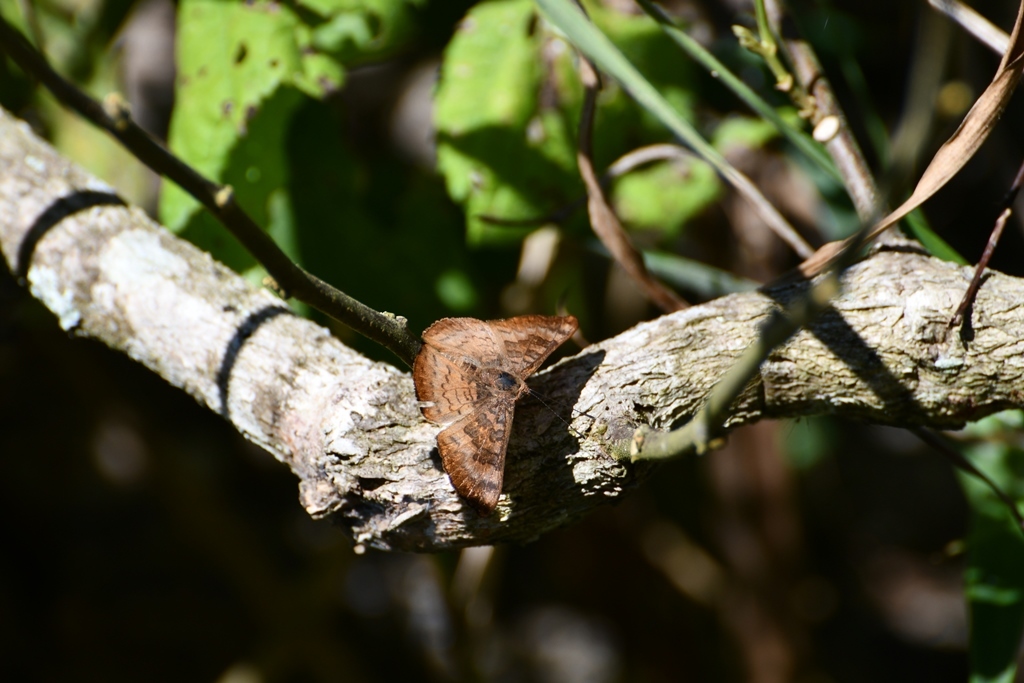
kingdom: Animalia
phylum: Arthropoda
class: Insecta
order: Lepidoptera
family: Lycaenidae
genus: Emesis
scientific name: Emesis tegula
